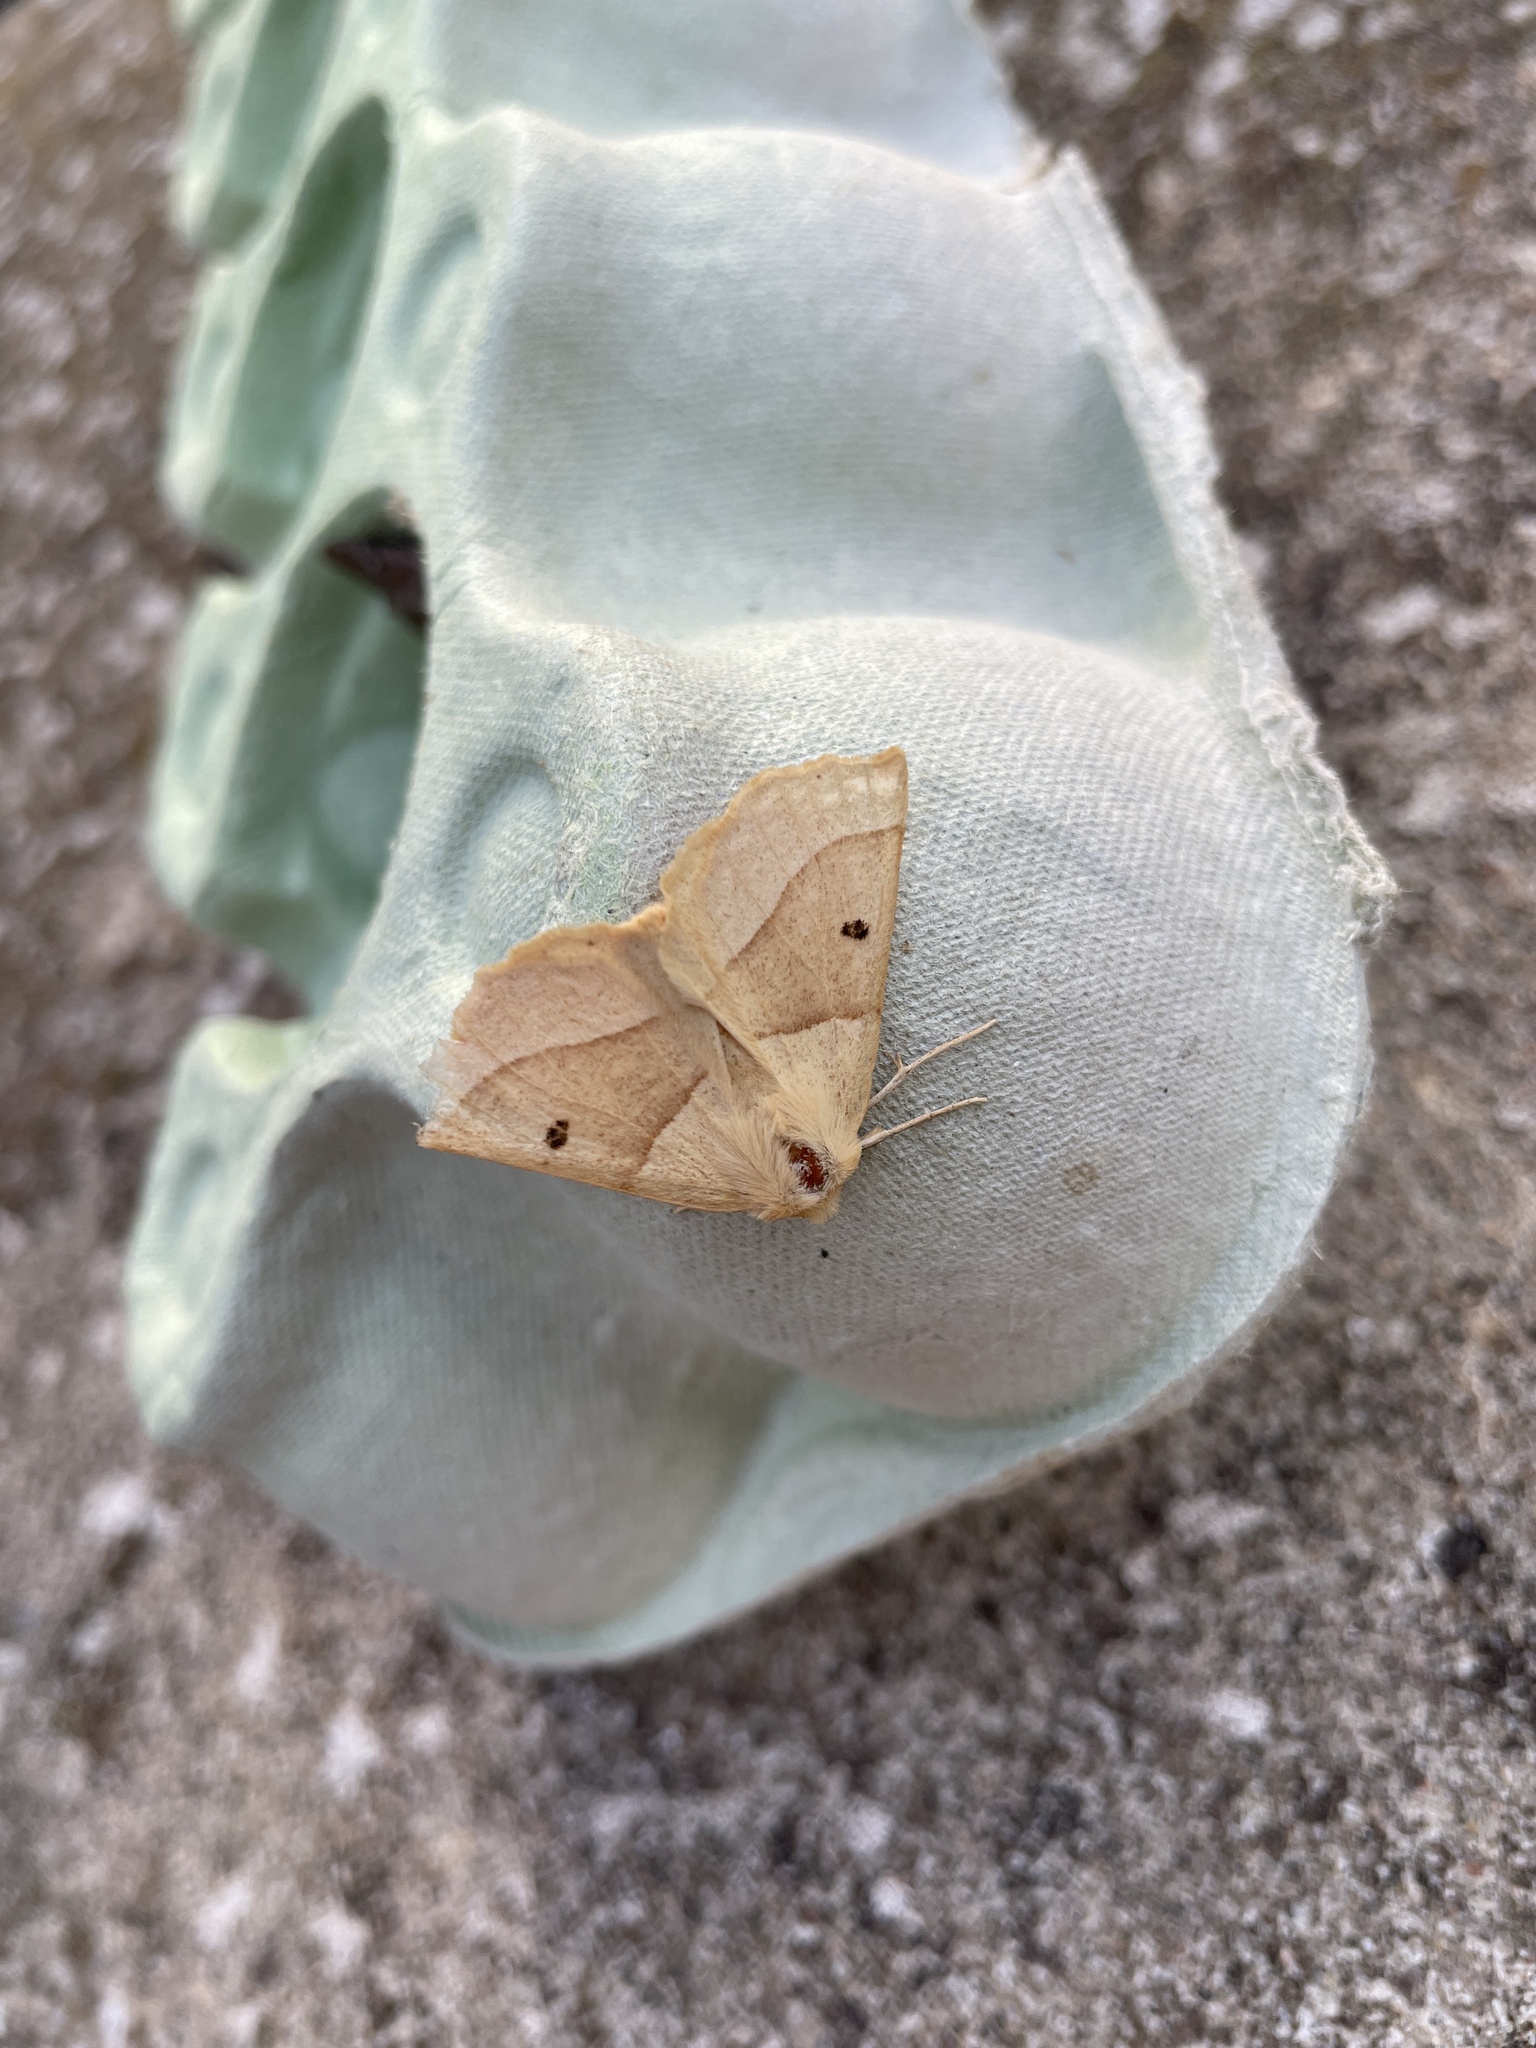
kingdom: Animalia
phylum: Arthropoda
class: Insecta
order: Lepidoptera
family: Geometridae
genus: Crocallis
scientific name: Crocallis elinguaria
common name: Scalloped oak
